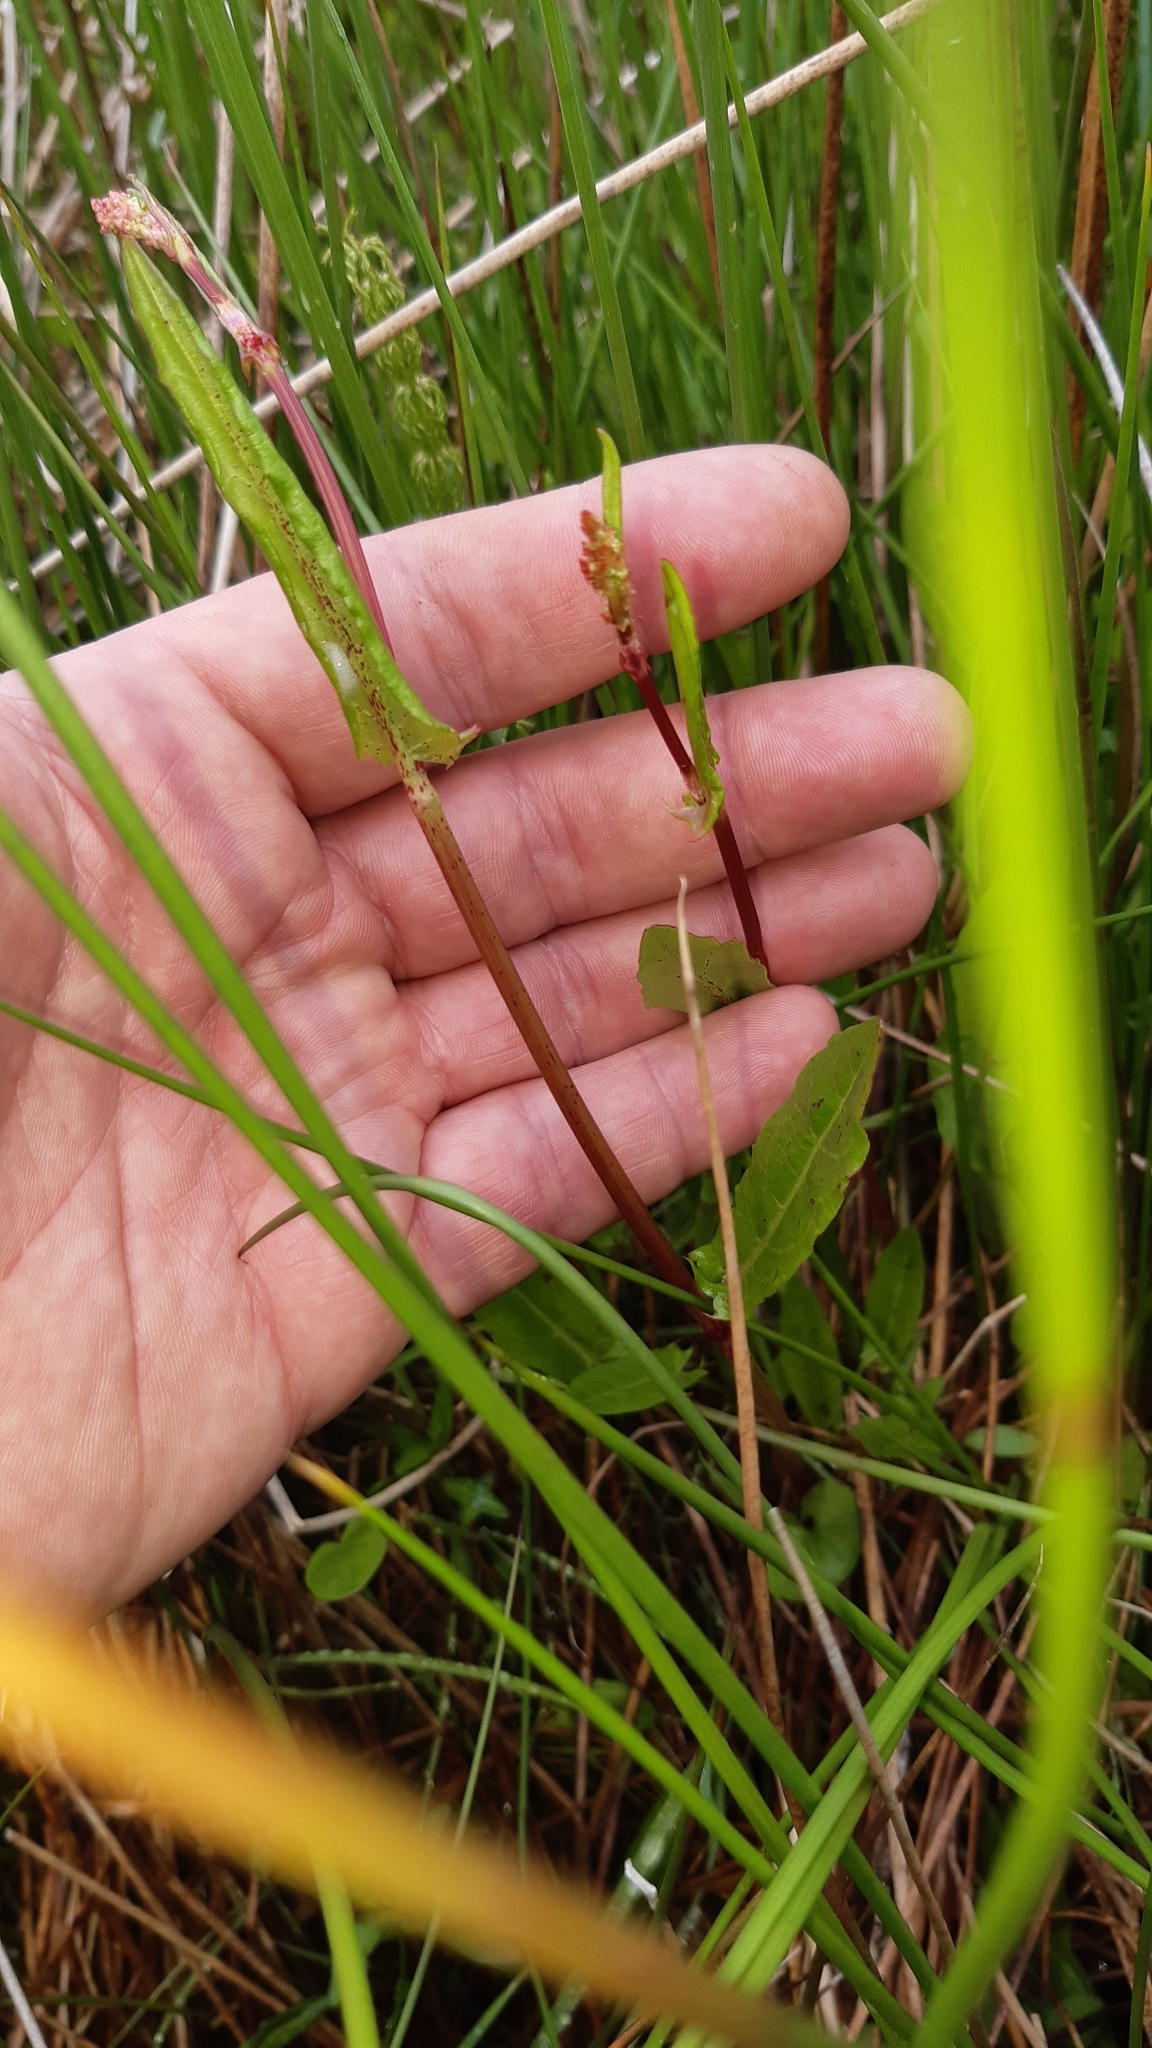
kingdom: Plantae
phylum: Tracheophyta
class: Magnoliopsida
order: Caryophyllales
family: Polygonaceae
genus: Rumex
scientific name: Rumex acetosa
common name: Garden sorrel
